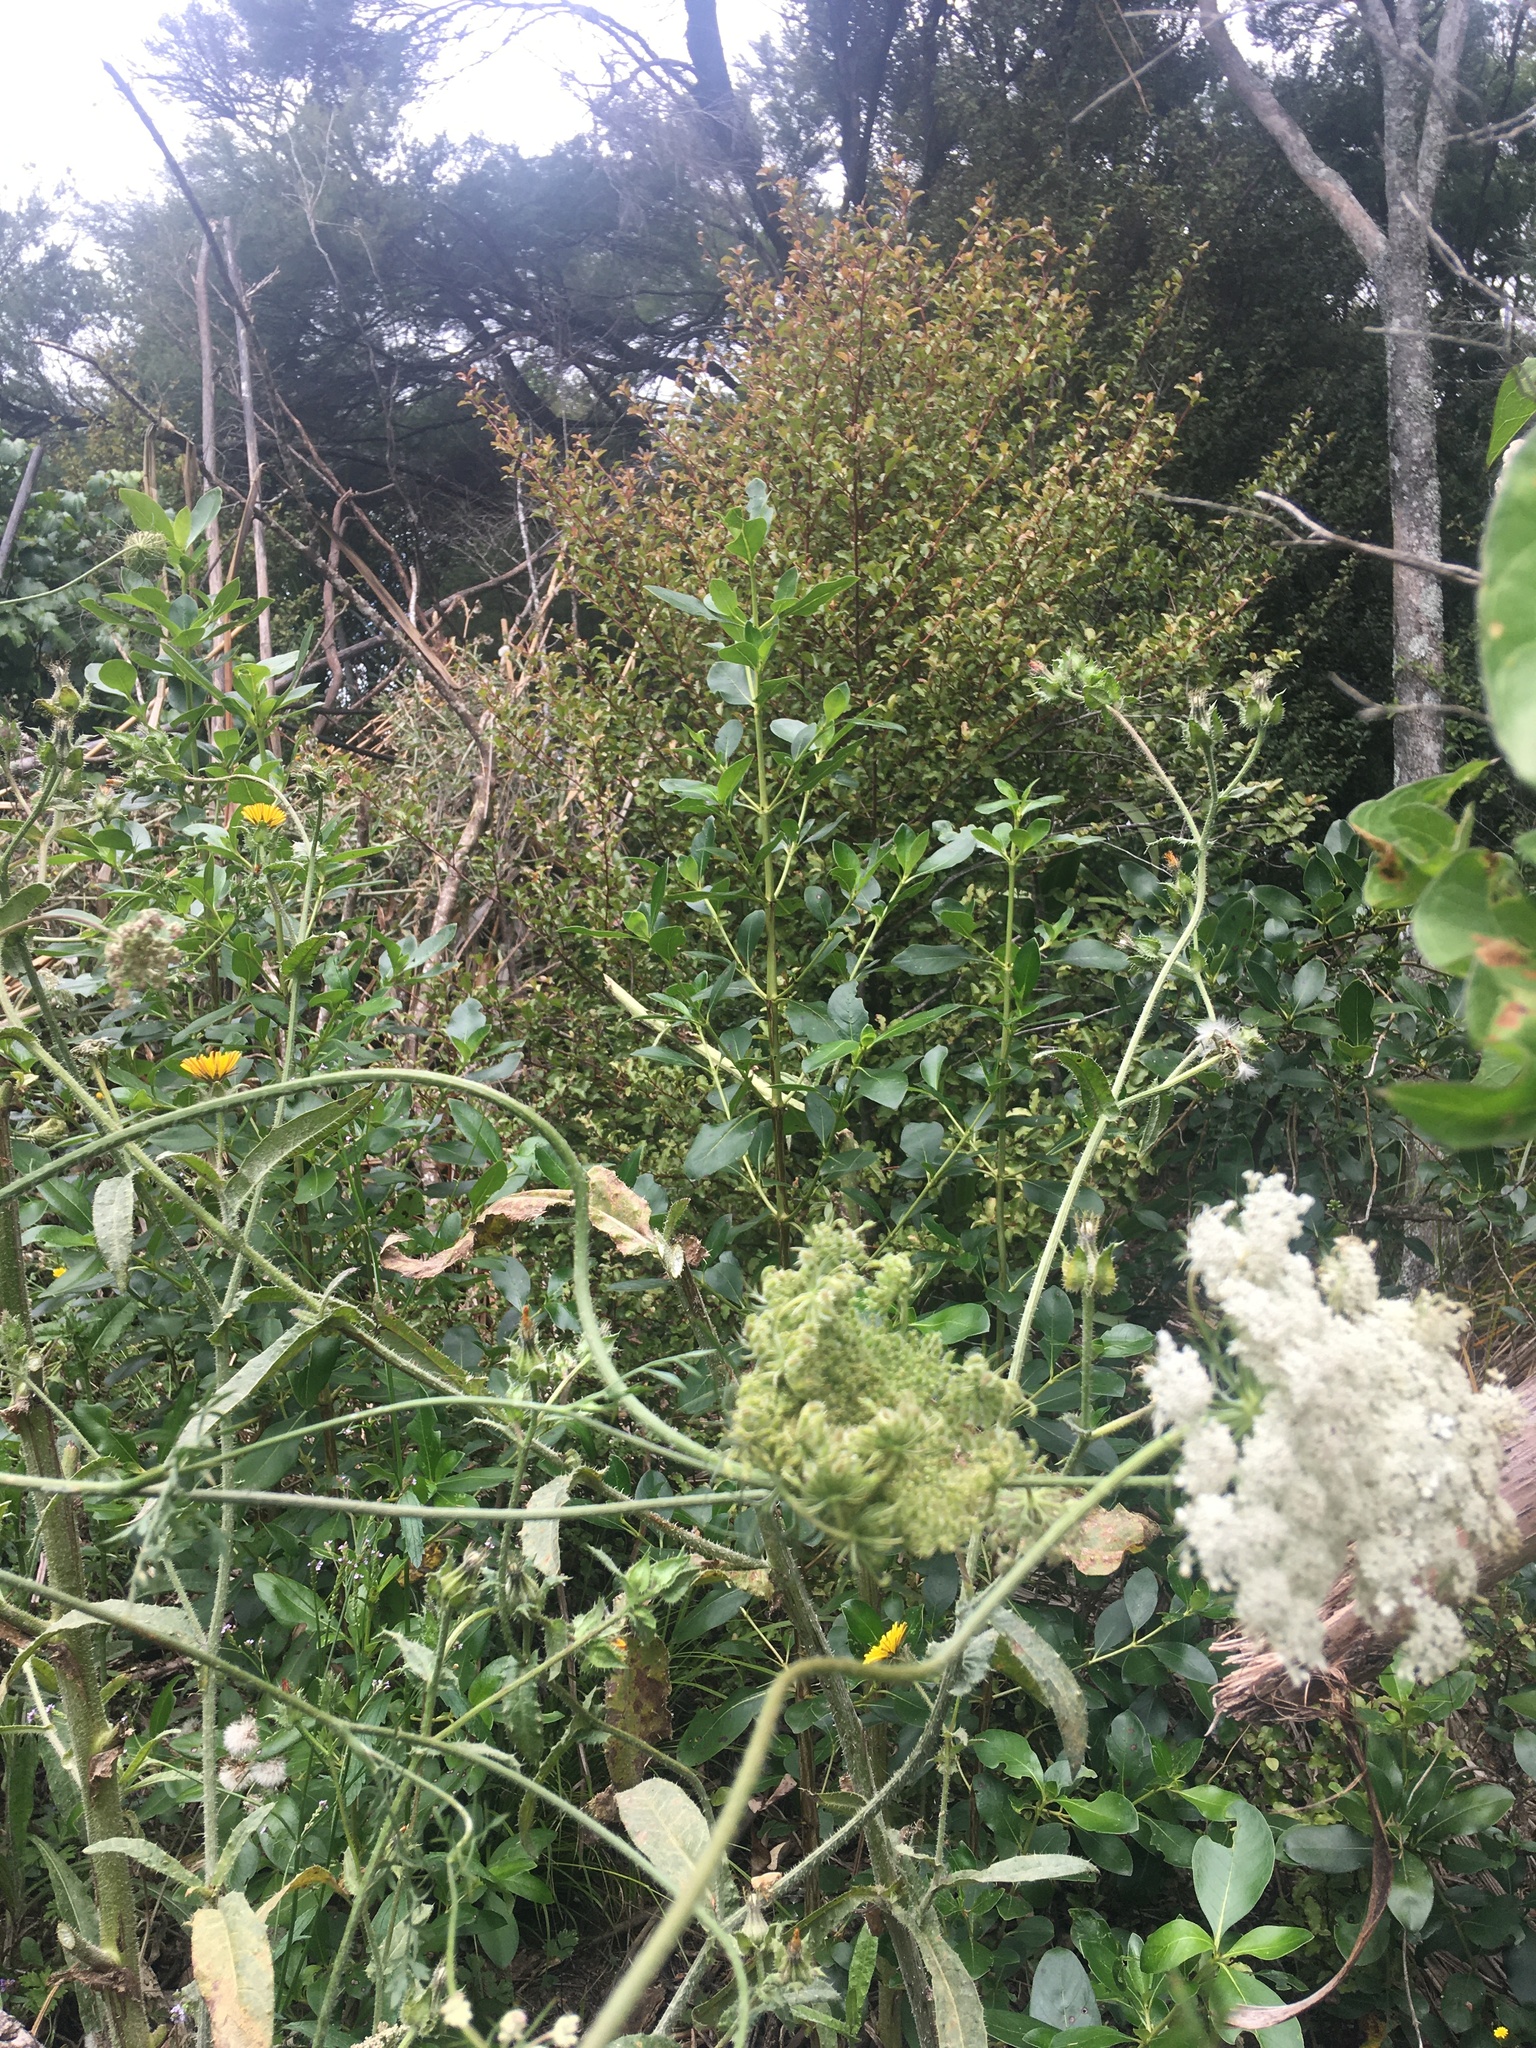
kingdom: Plantae
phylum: Tracheophyta
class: Magnoliopsida
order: Gentianales
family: Rubiaceae
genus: Coprosma
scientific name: Coprosma robusta
